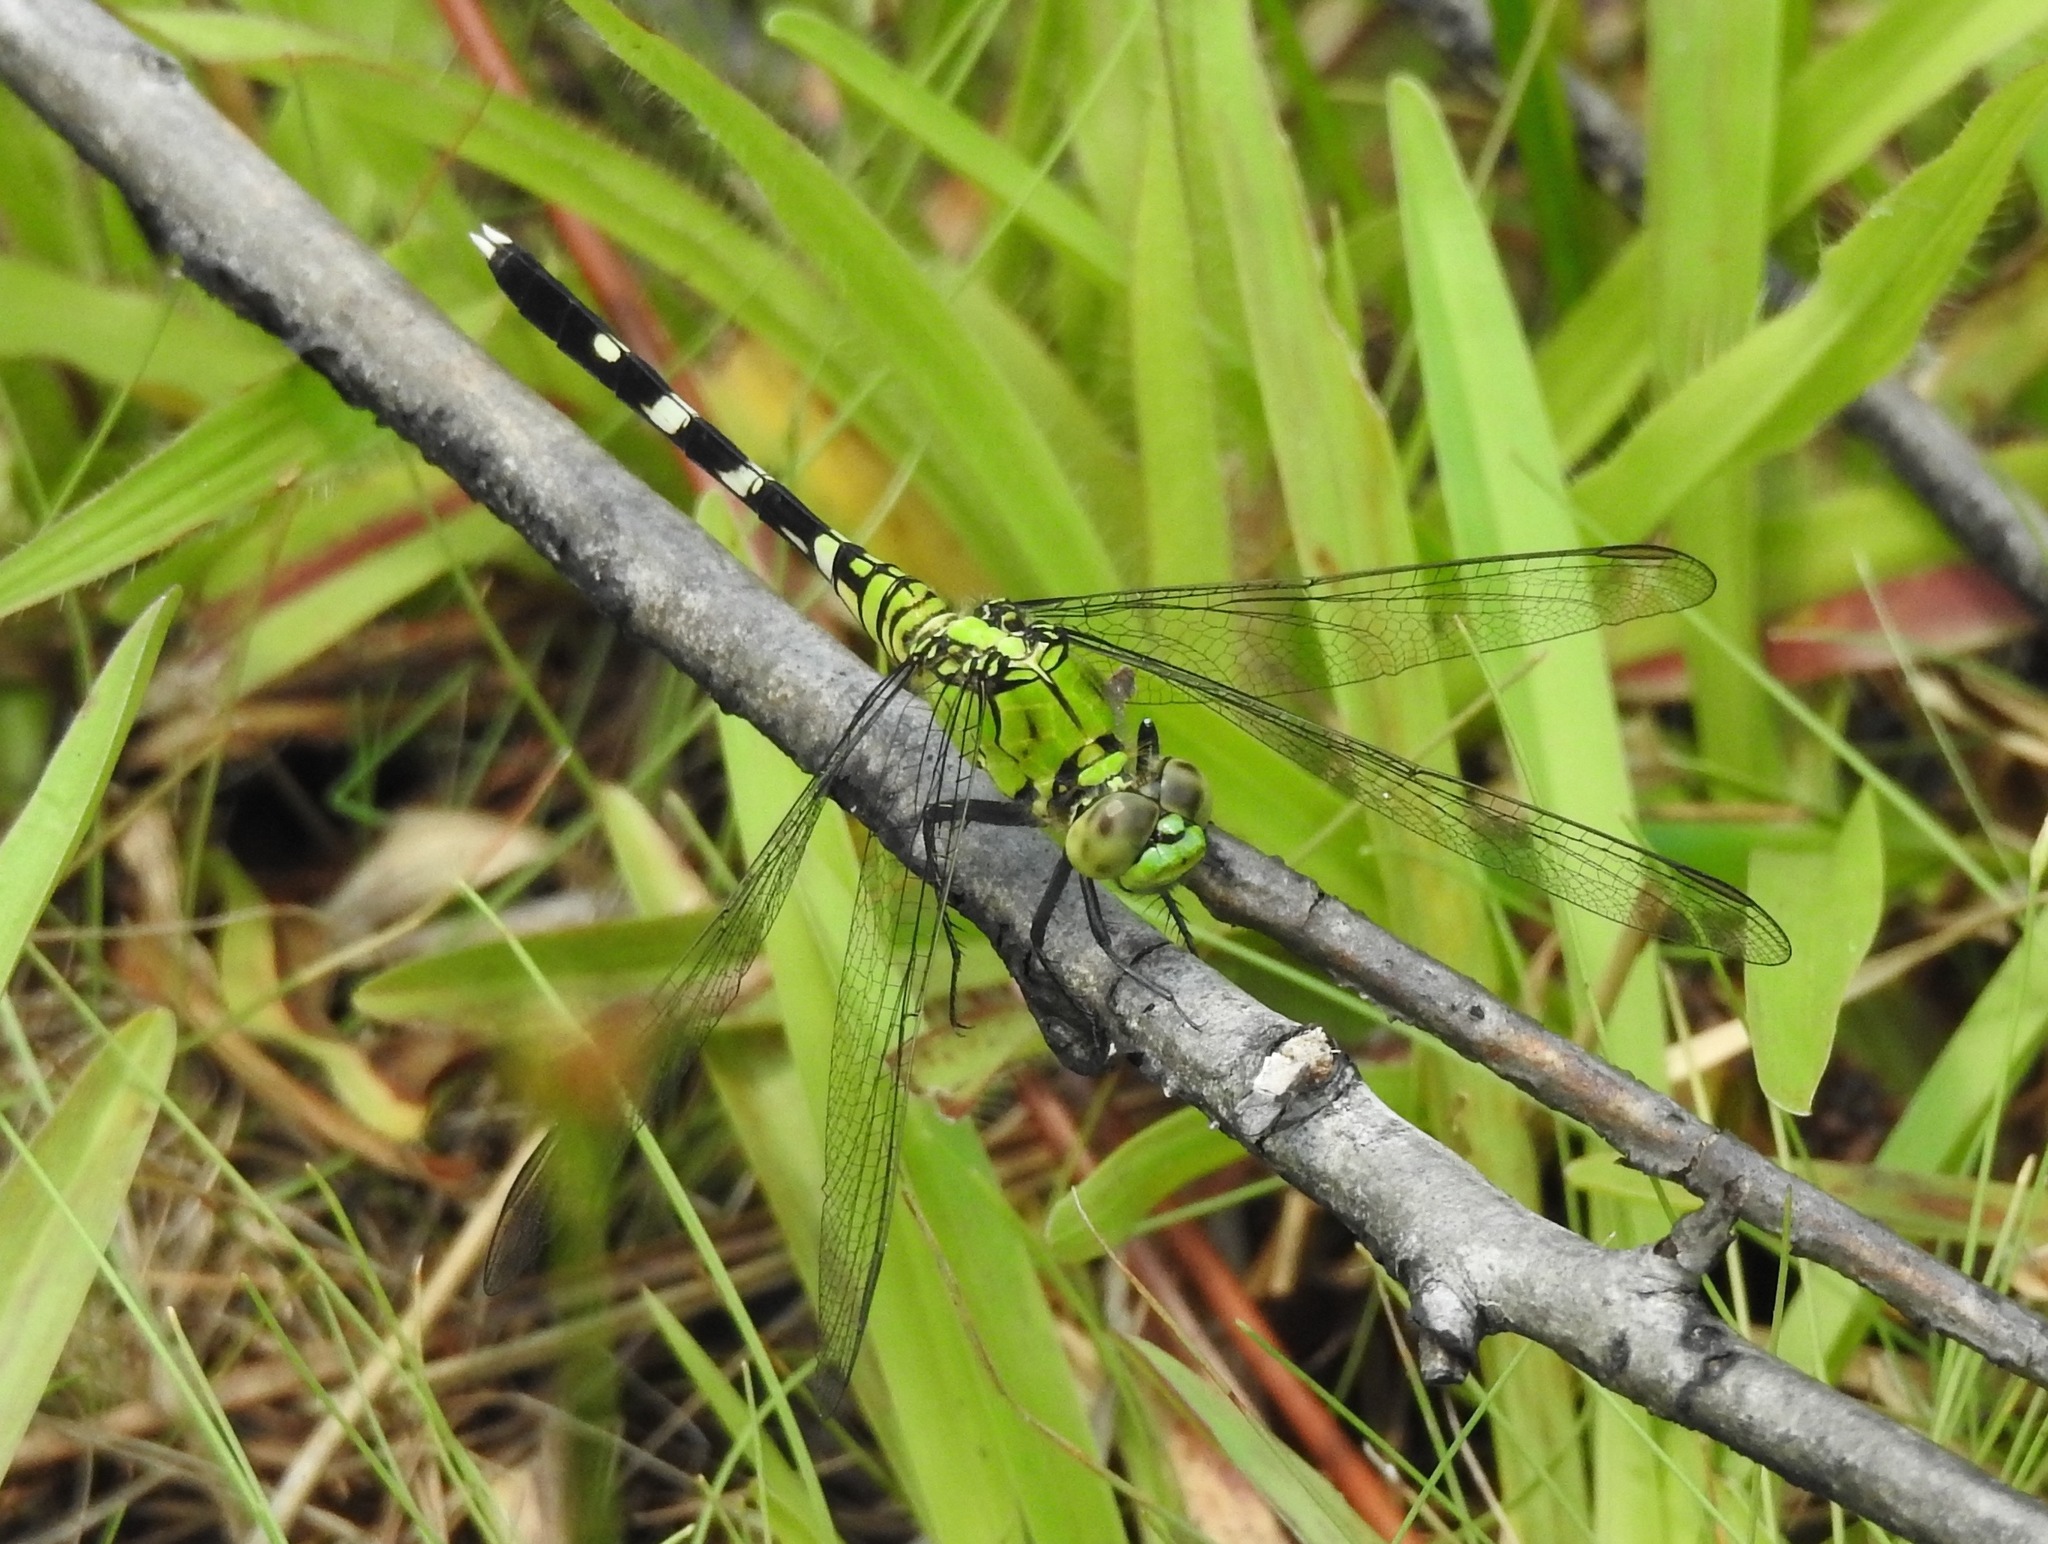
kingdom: Animalia
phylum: Arthropoda
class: Insecta
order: Odonata
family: Libellulidae
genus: Erythemis
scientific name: Erythemis simplicicollis
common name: Eastern pondhawk
